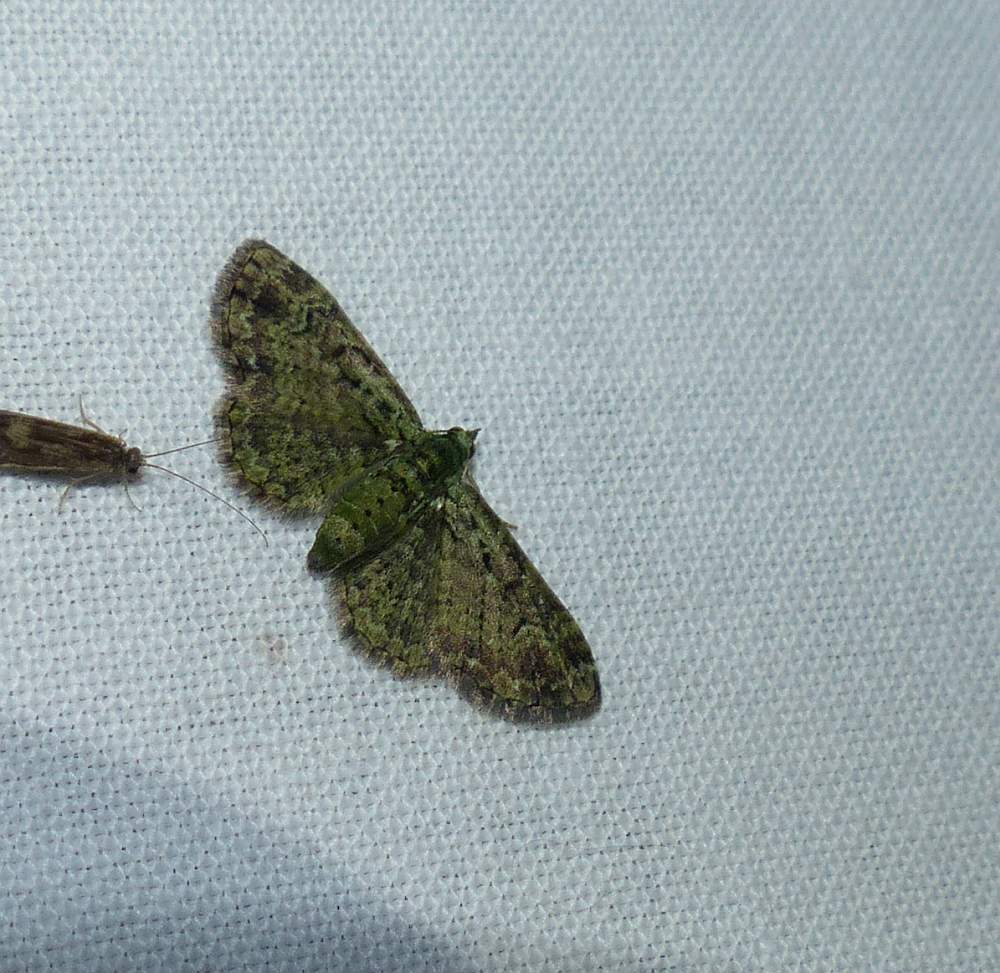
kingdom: Animalia
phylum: Arthropoda
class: Insecta
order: Lepidoptera
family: Geometridae
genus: Pasiphila
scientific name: Pasiphila rectangulata
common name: Green pug
